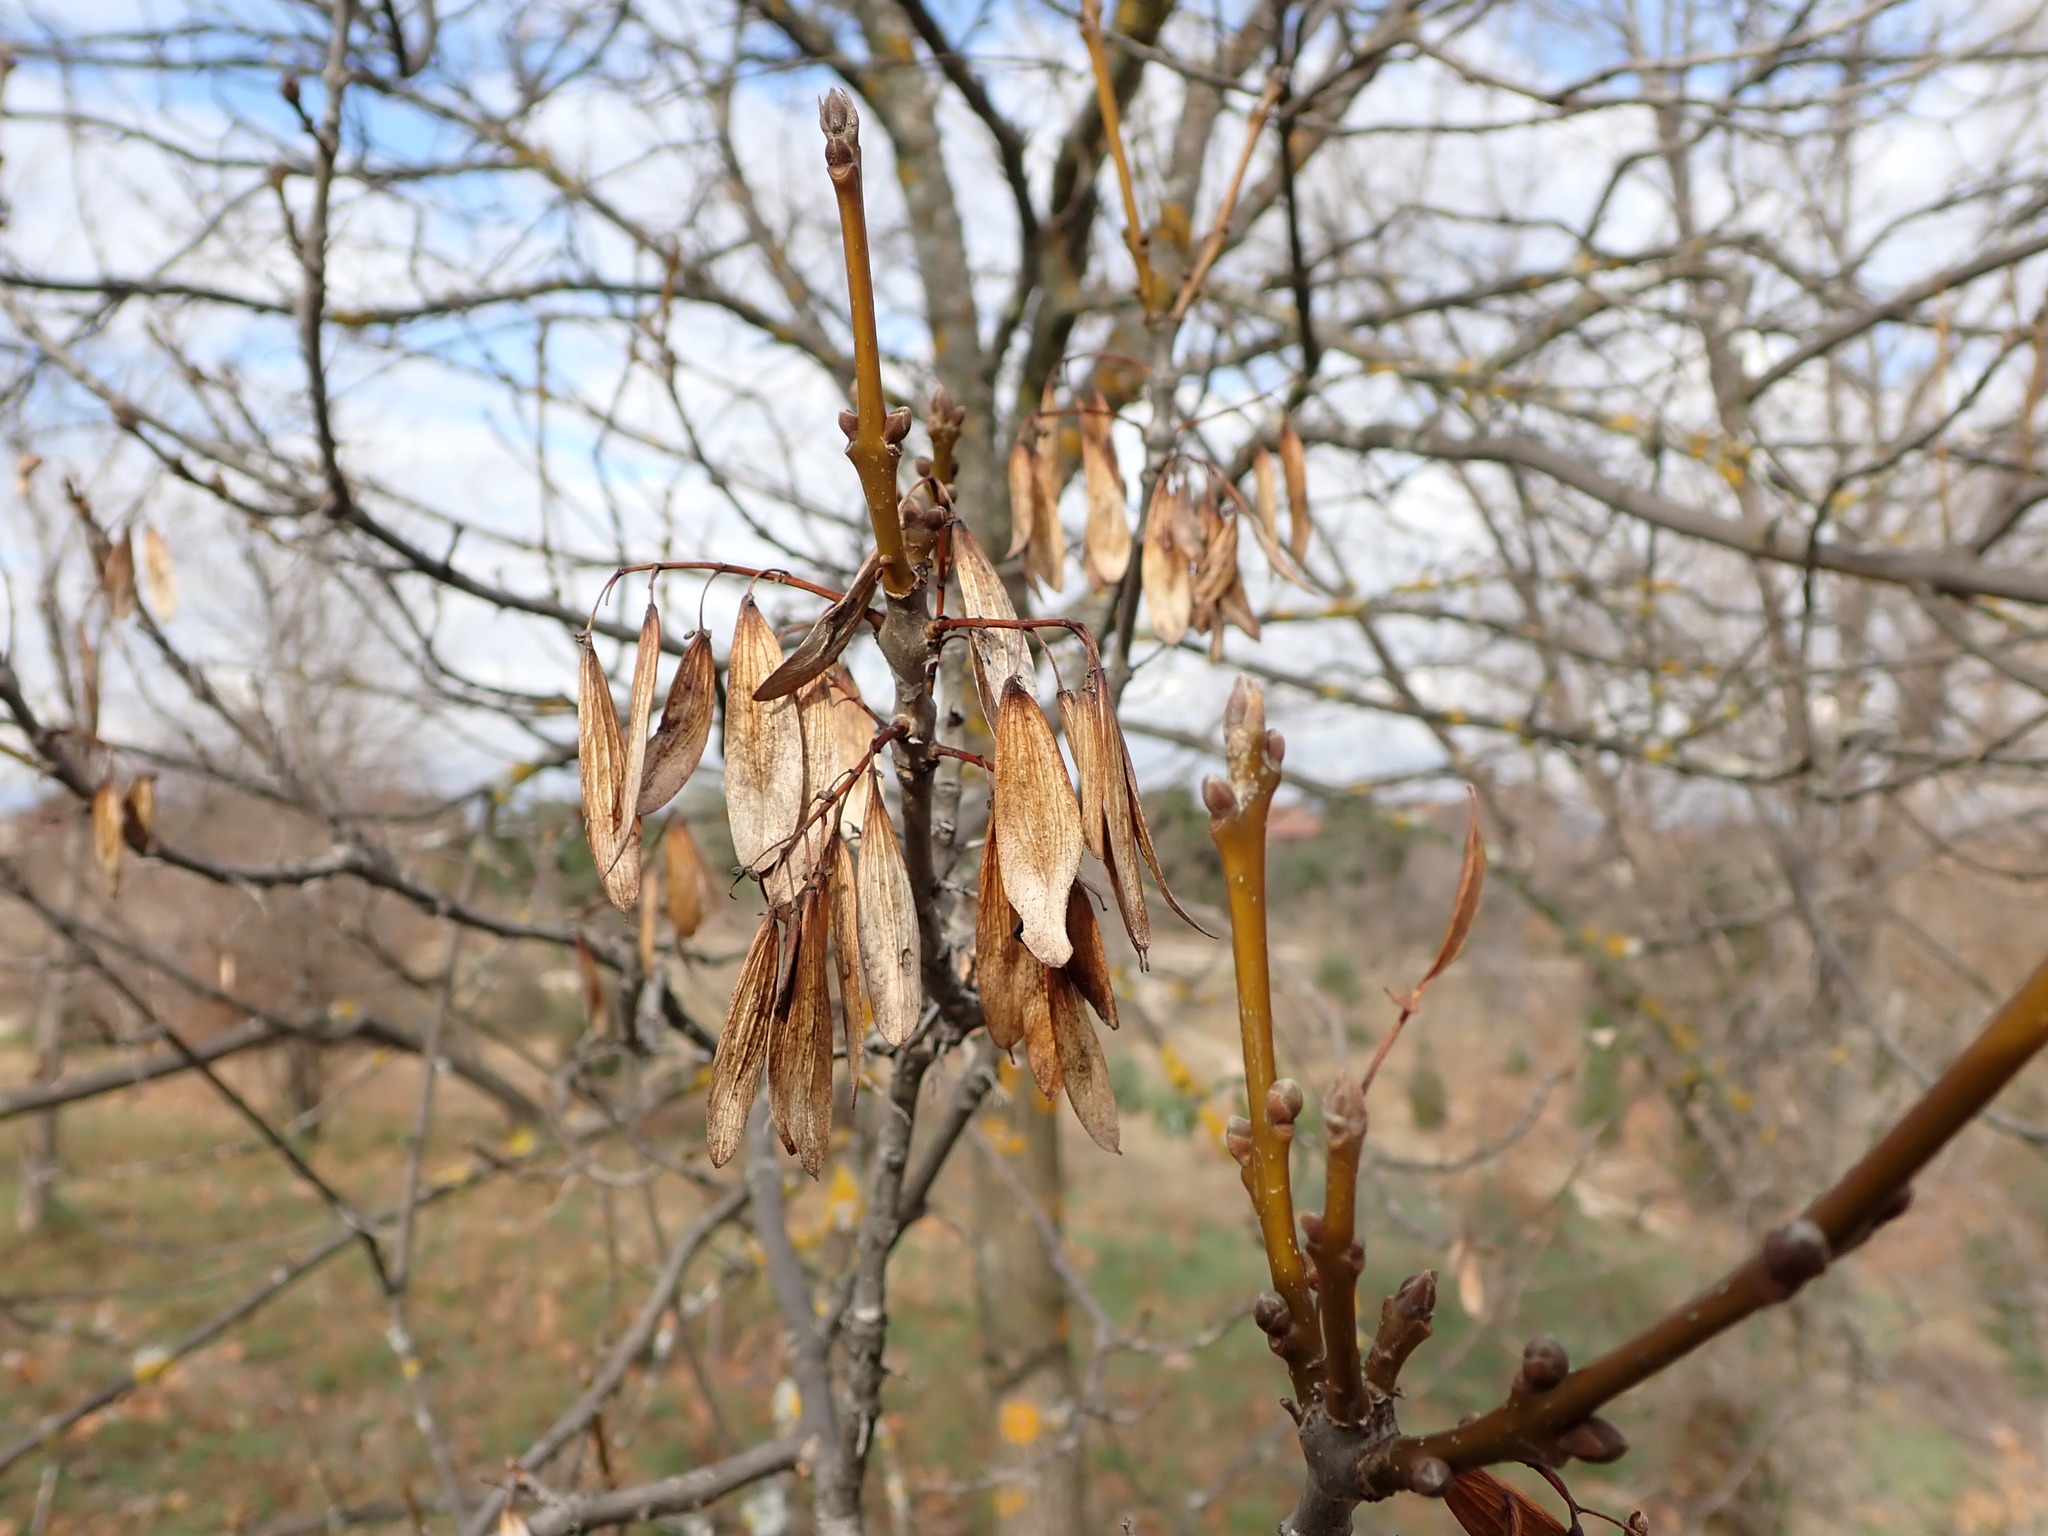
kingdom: Plantae
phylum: Tracheophyta
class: Magnoliopsida
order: Lamiales
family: Oleaceae
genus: Fraxinus
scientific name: Fraxinus angustifolia
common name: Narrow-leafed ash
